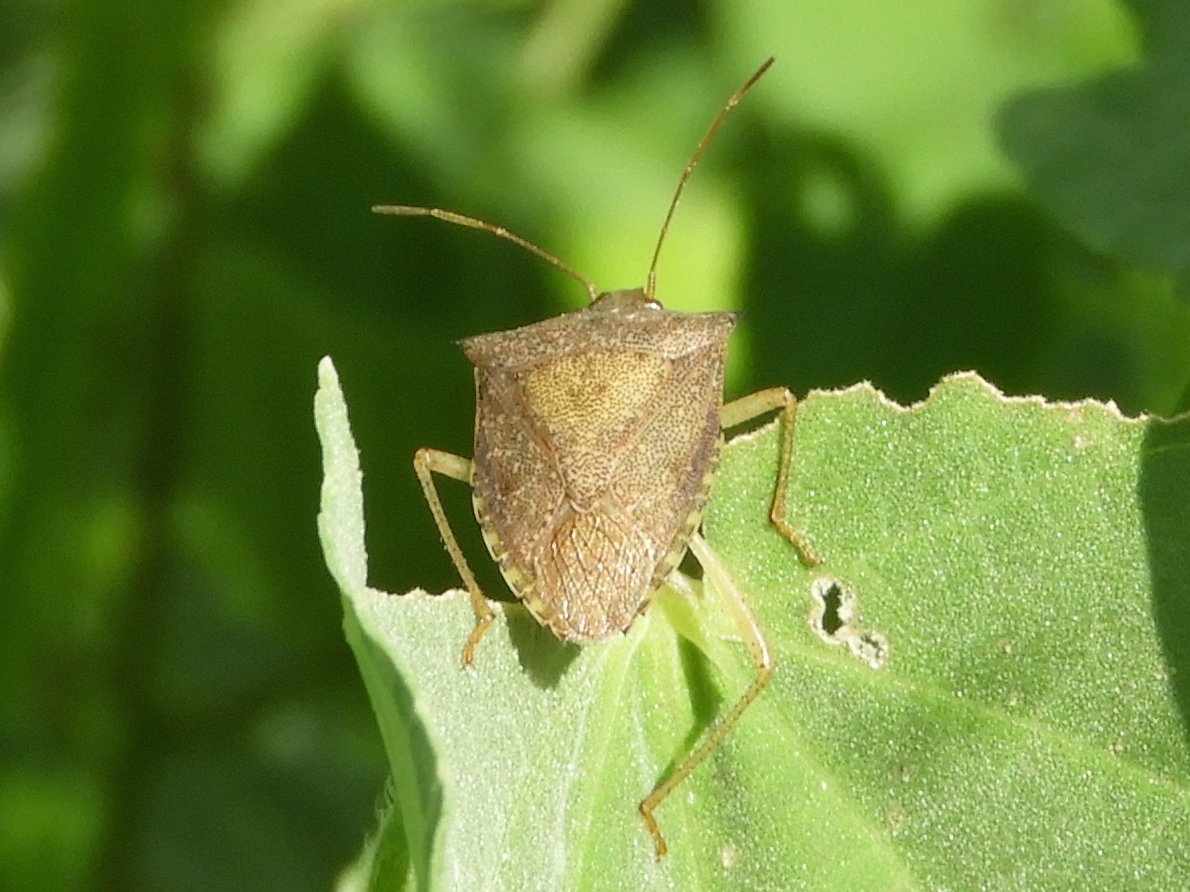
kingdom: Animalia
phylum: Arthropoda
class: Insecta
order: Hemiptera
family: Pentatomidae
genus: Euschistus
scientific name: Euschistus
